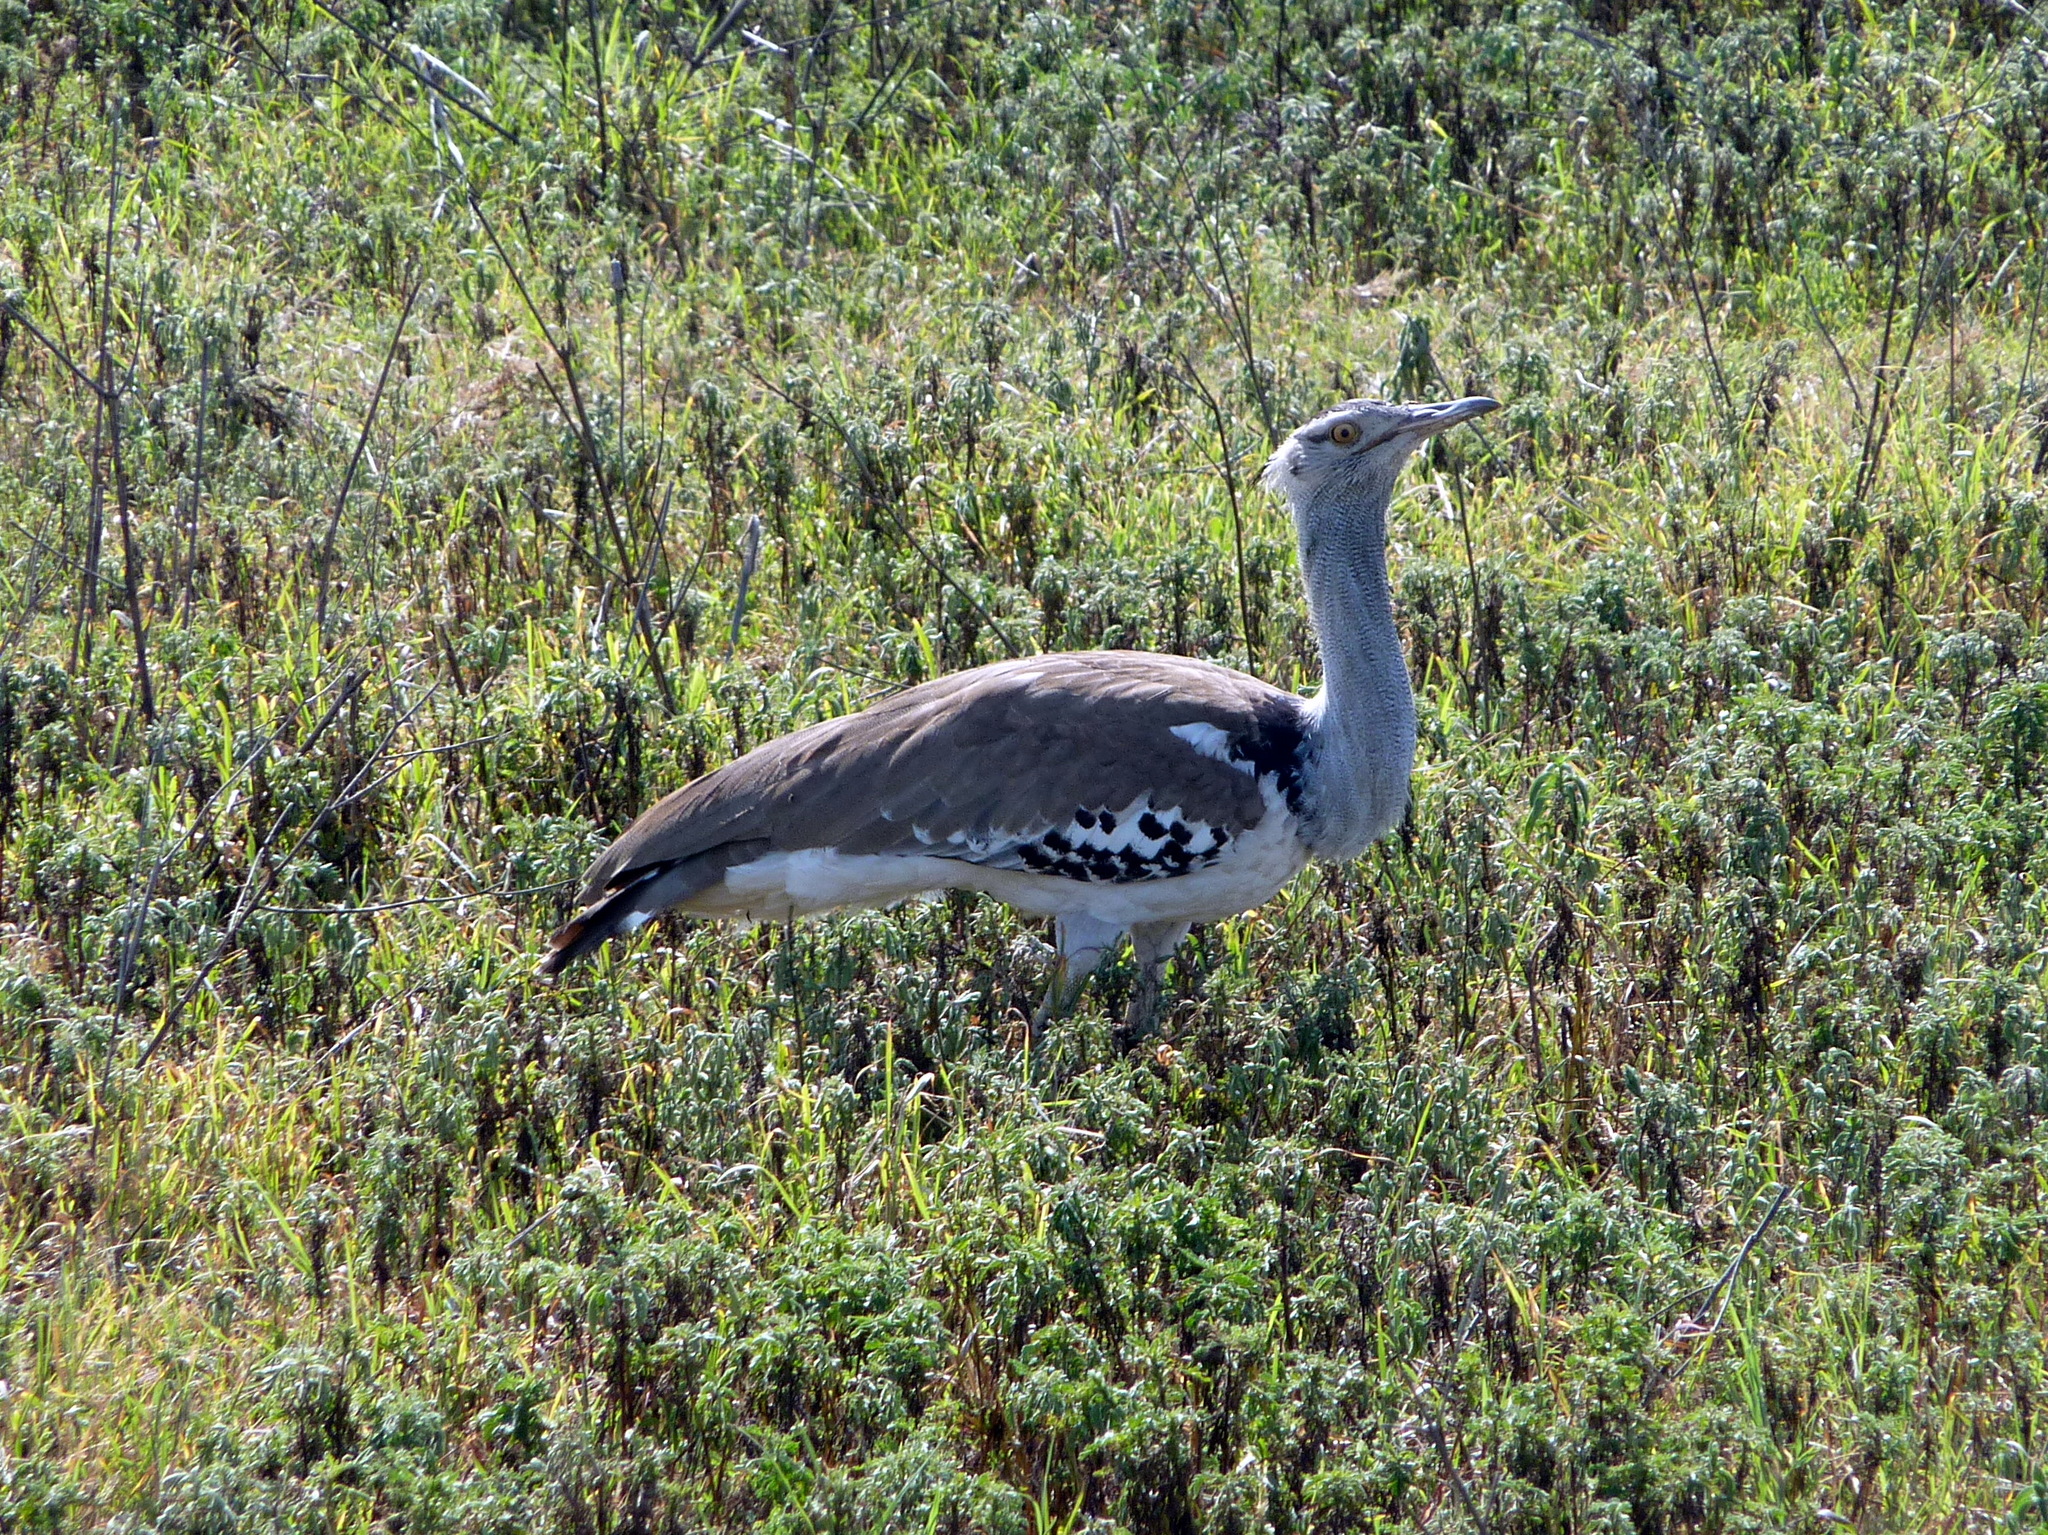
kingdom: Animalia
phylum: Chordata
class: Aves
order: Otidiformes
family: Otididae
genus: Ardeotis
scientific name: Ardeotis kori
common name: Kori bustard
